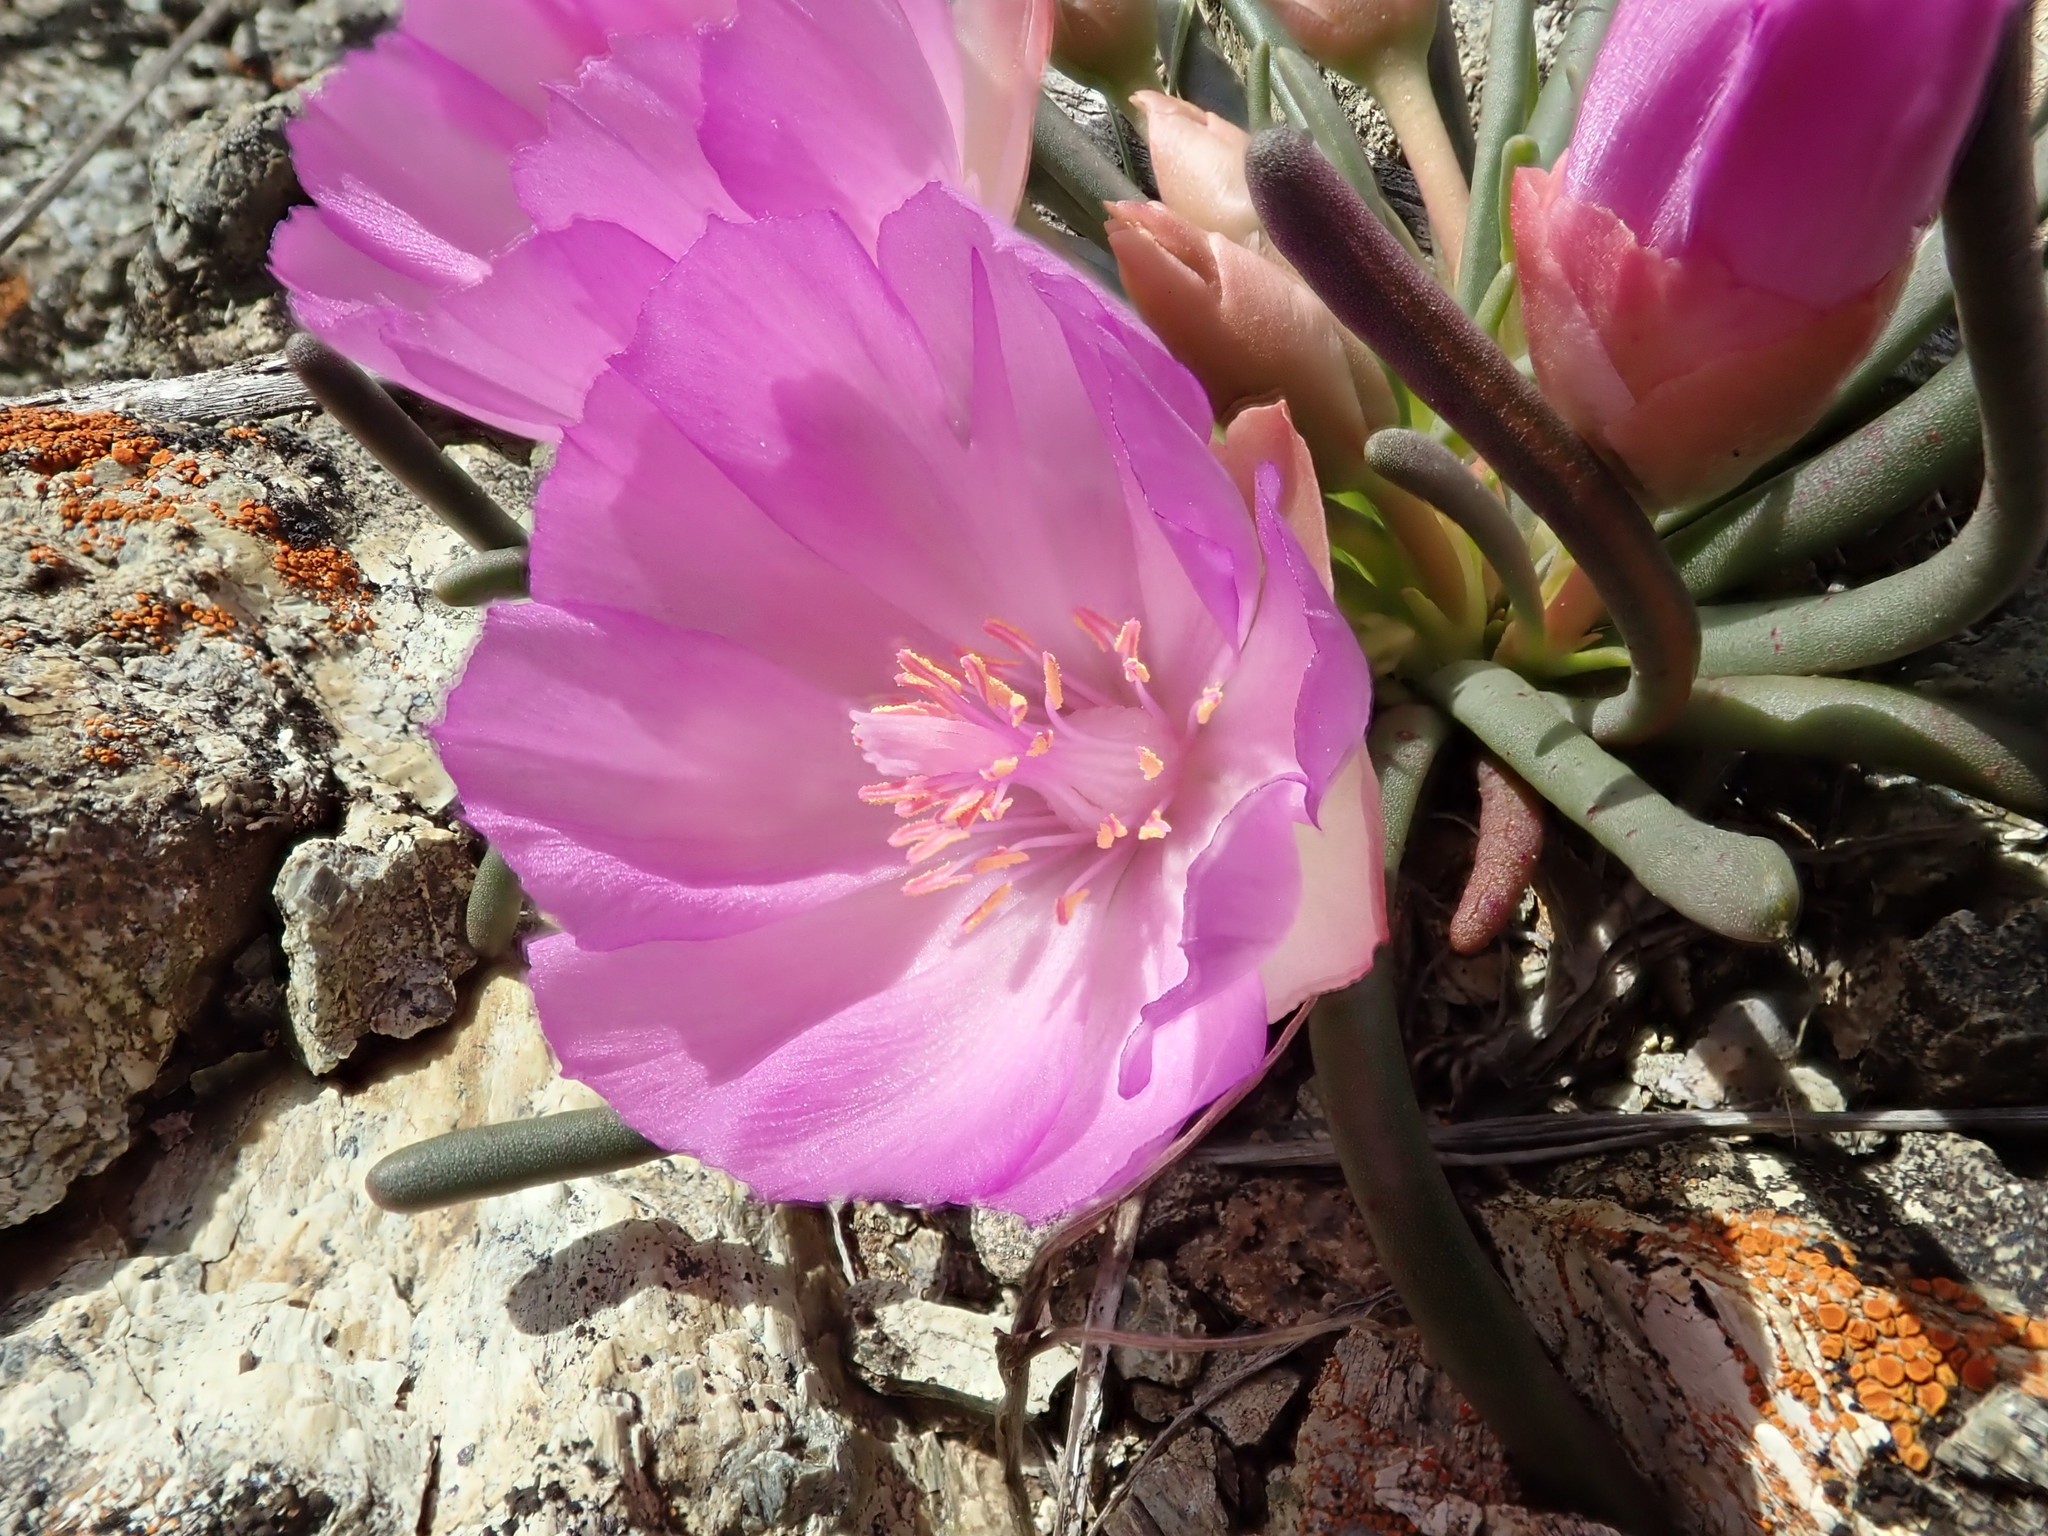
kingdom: Plantae
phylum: Tracheophyta
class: Magnoliopsida
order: Caryophyllales
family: Montiaceae
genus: Lewisia
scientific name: Lewisia rediviva
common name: Bitter-root
